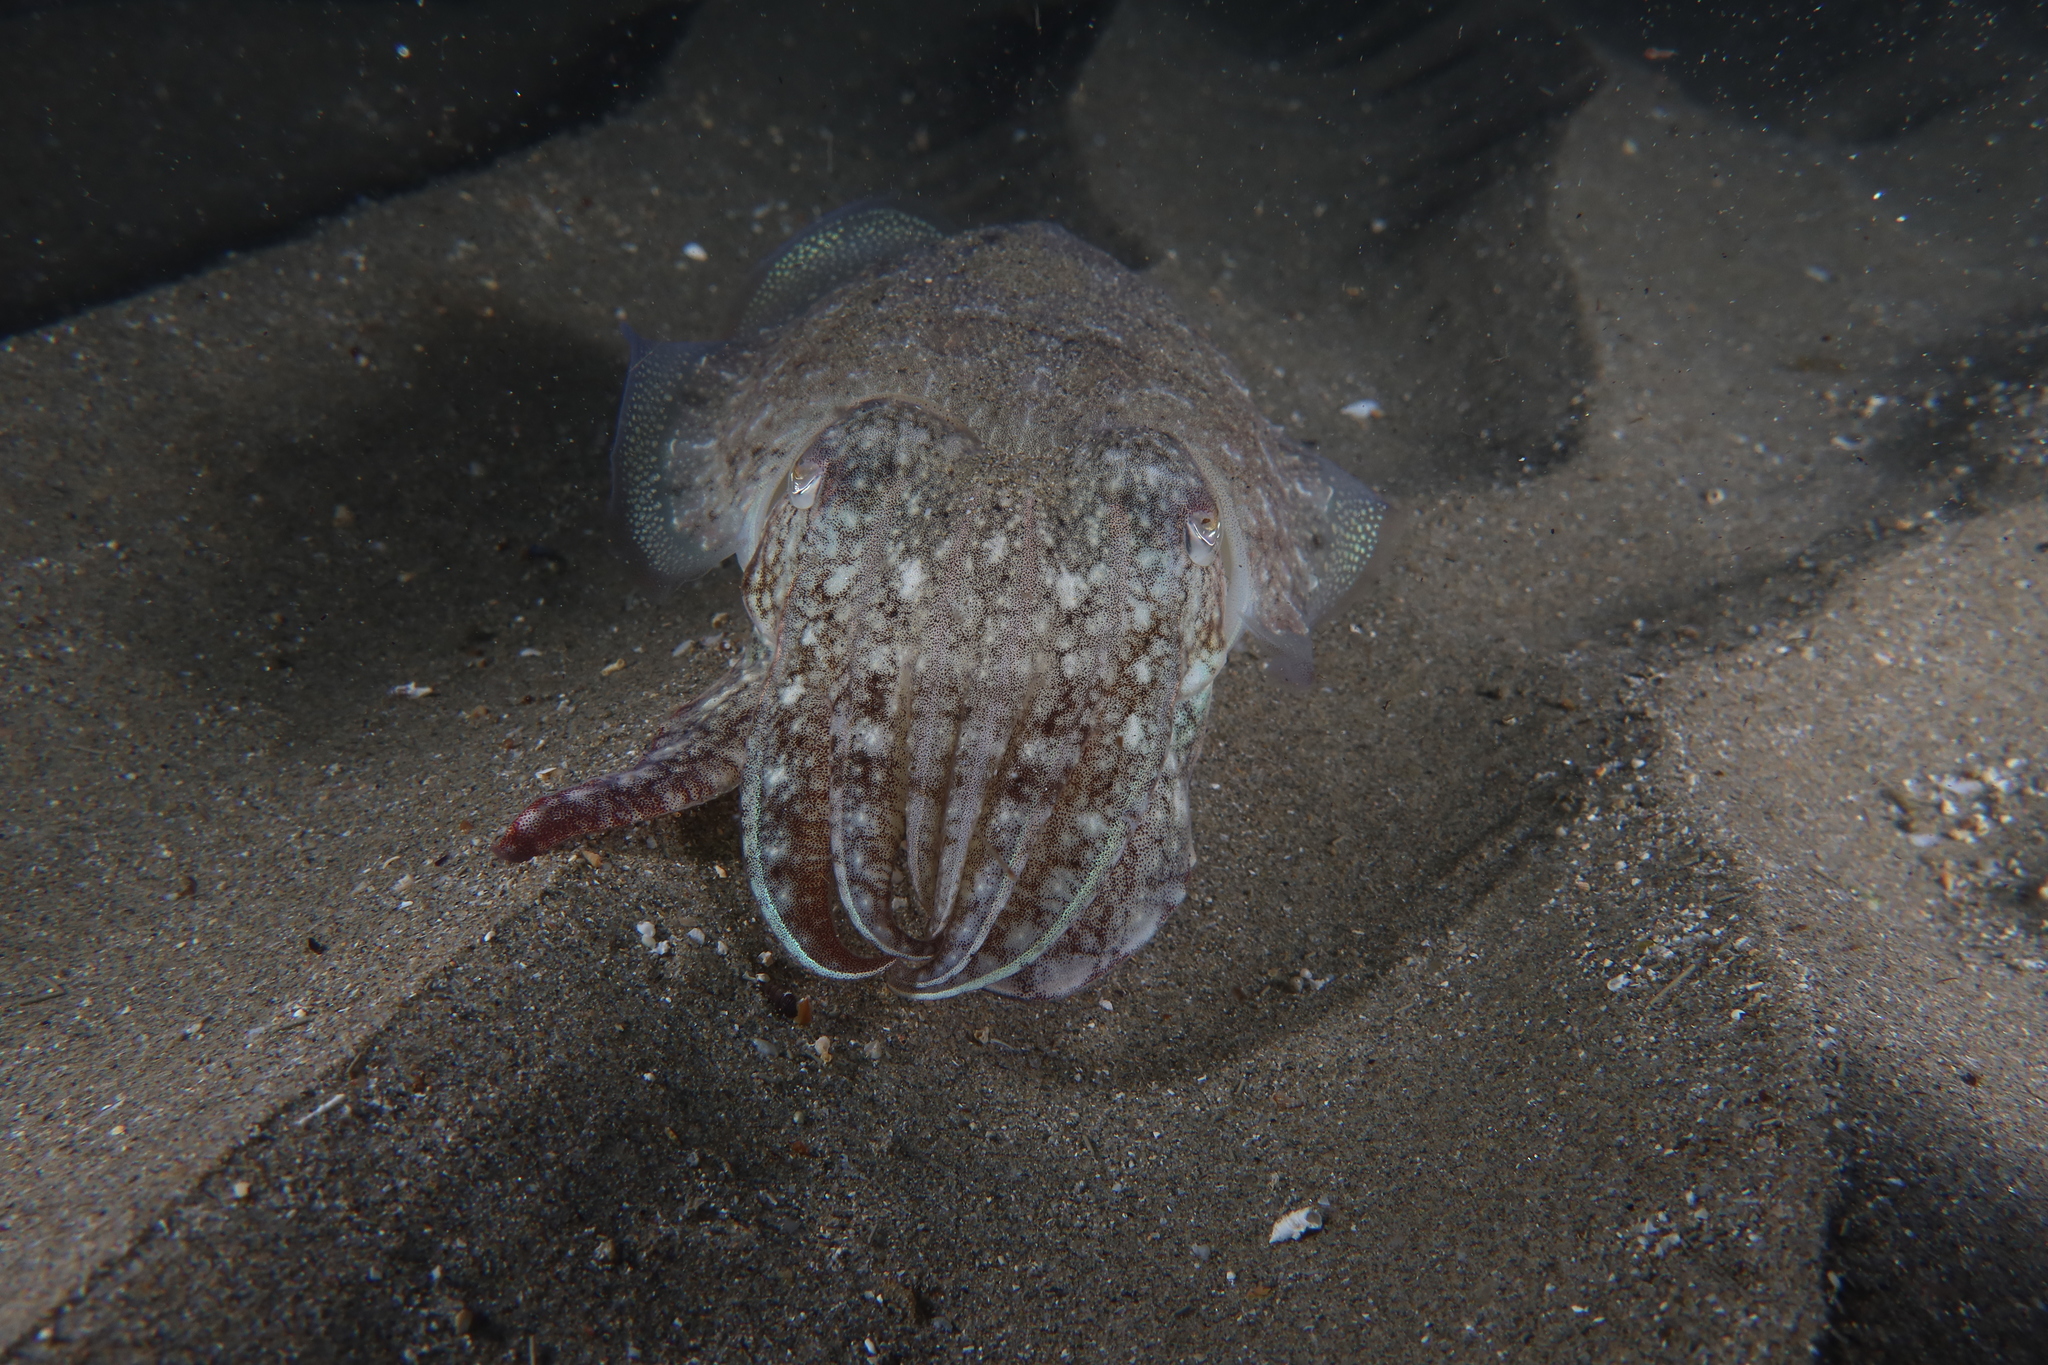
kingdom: Animalia
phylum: Mollusca
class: Cephalopoda
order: Sepiida
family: Sepiidae
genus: Sepia
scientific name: Sepia officinalis
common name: Common cuttlefish
